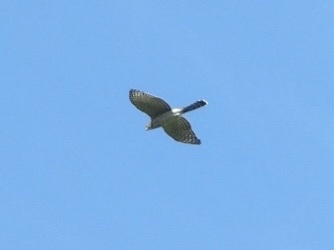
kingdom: Animalia
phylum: Chordata
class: Aves
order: Accipitriformes
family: Accipitridae
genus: Accipiter
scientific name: Accipiter cooperii
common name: Cooper's hawk
